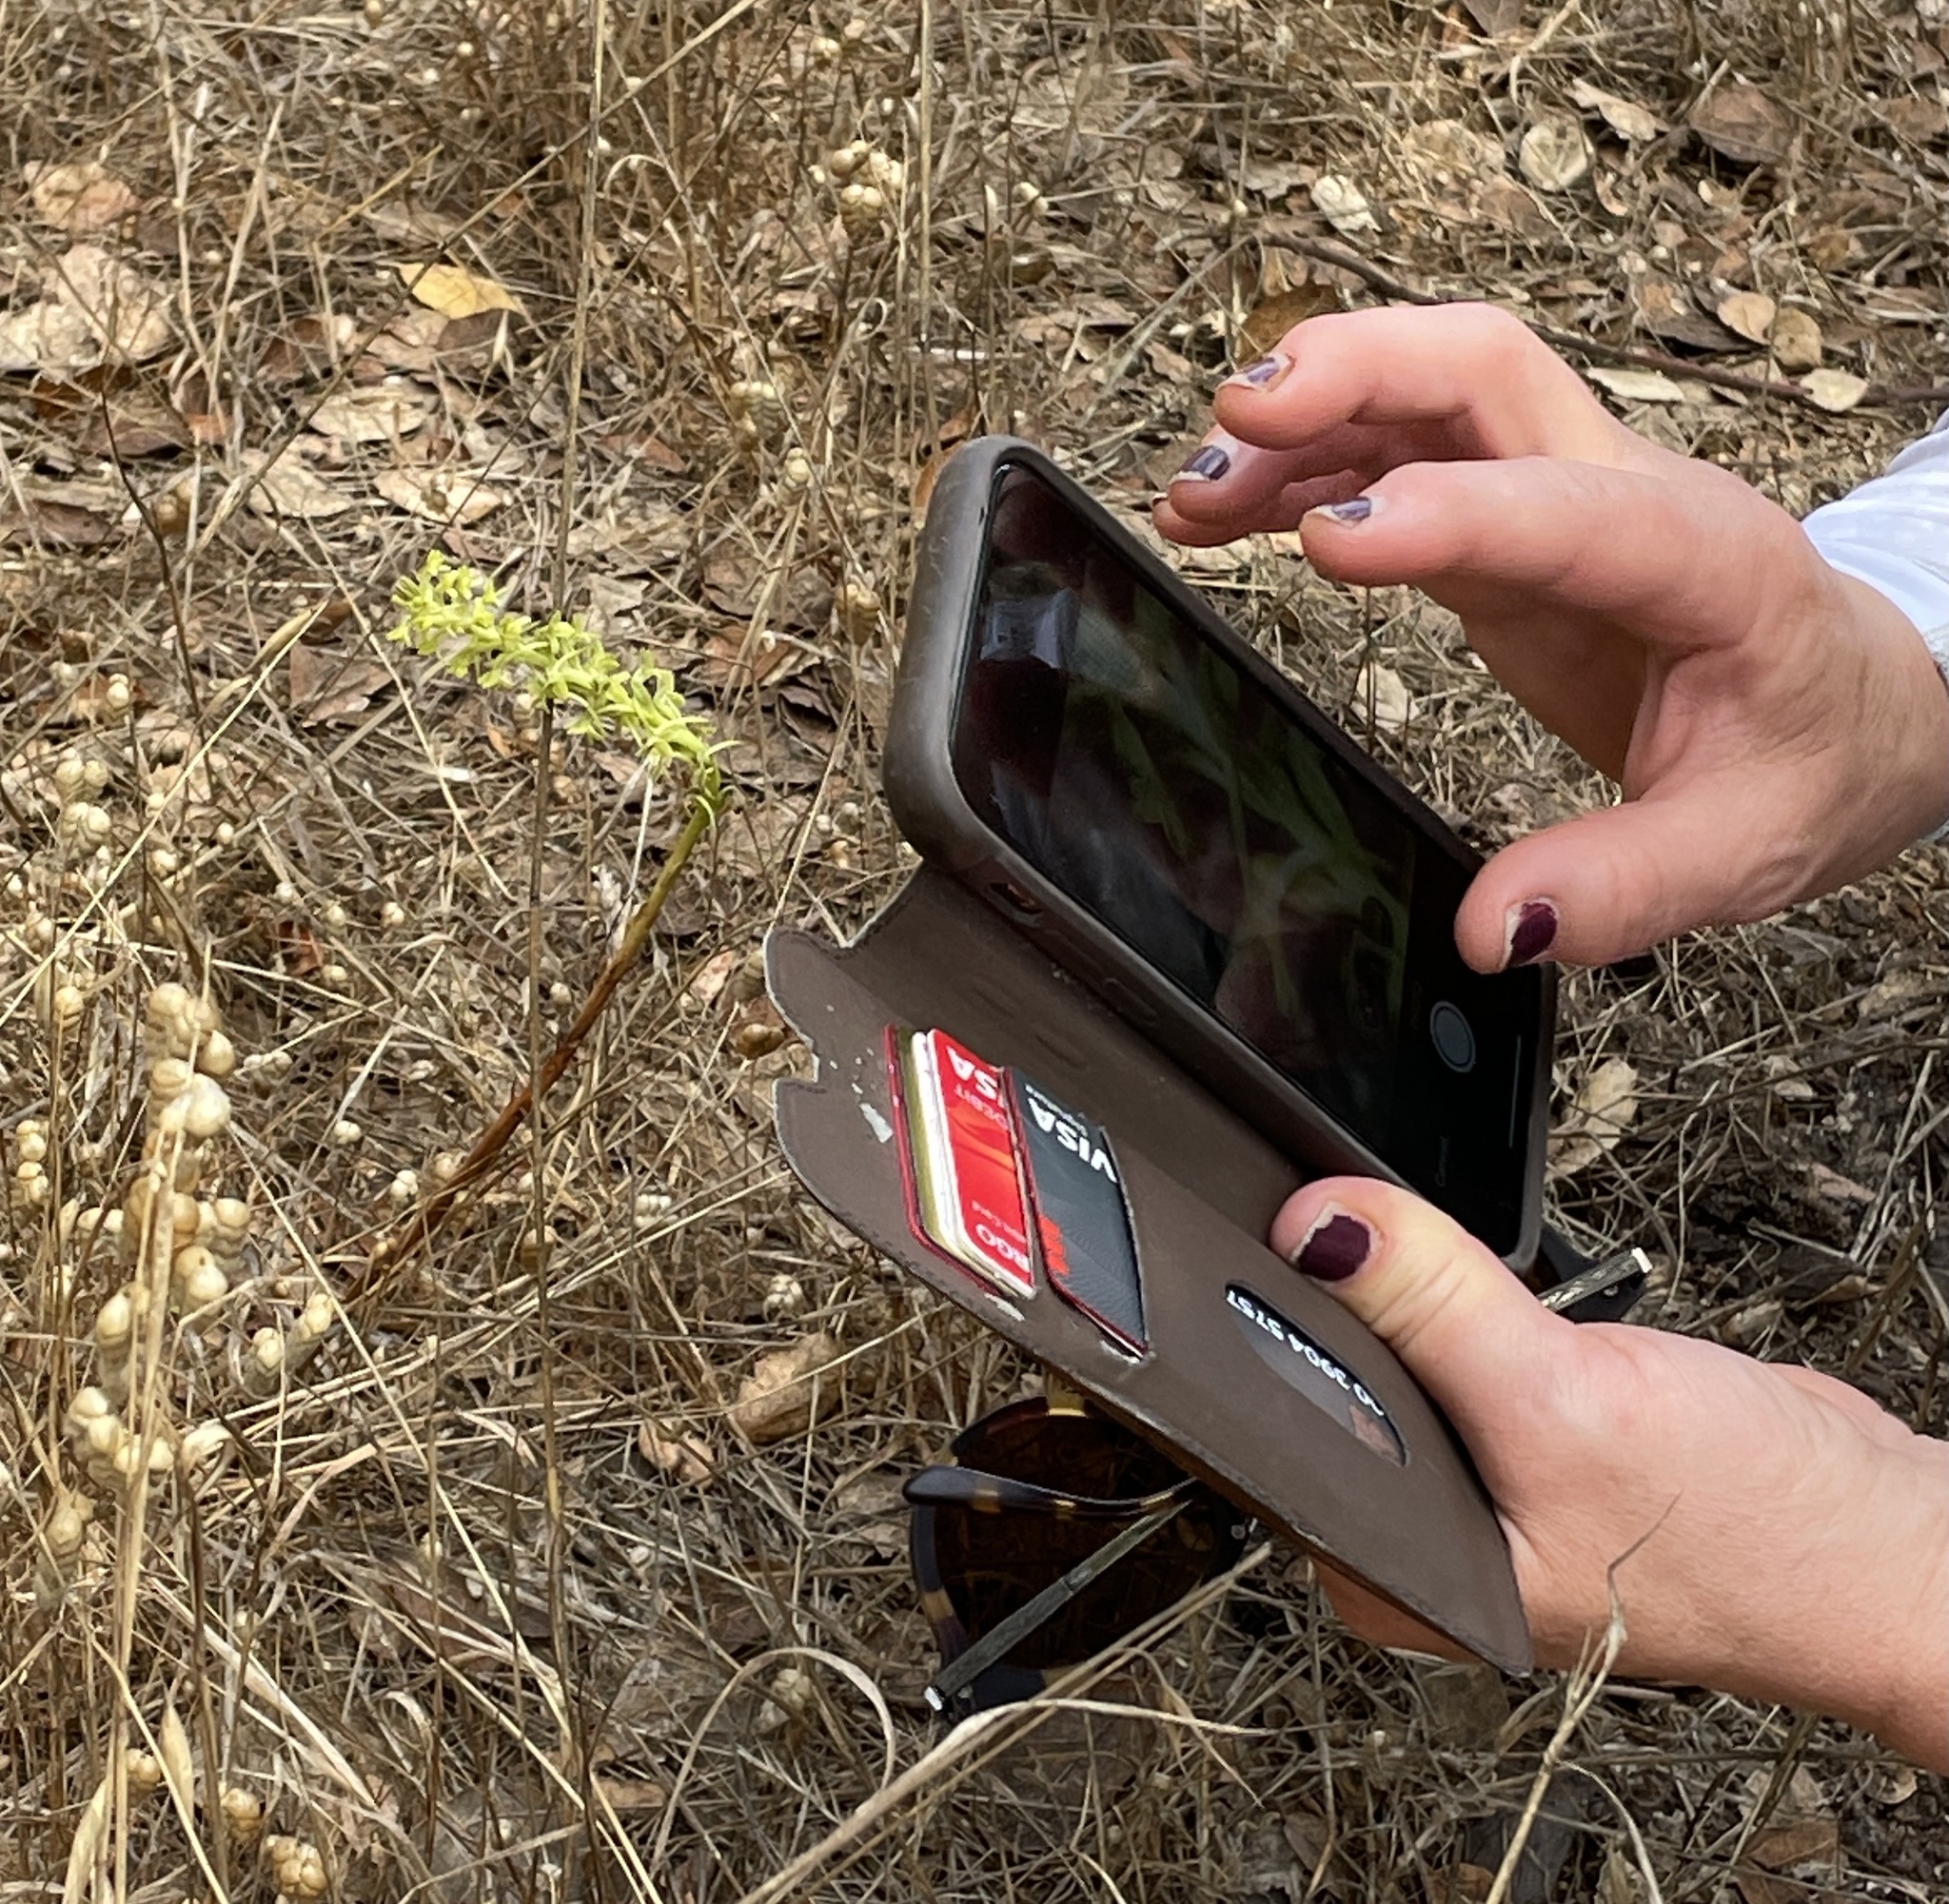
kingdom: Plantae
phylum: Tracheophyta
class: Liliopsida
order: Asparagales
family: Orchidaceae
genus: Platanthera
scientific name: Platanthera michaelii
